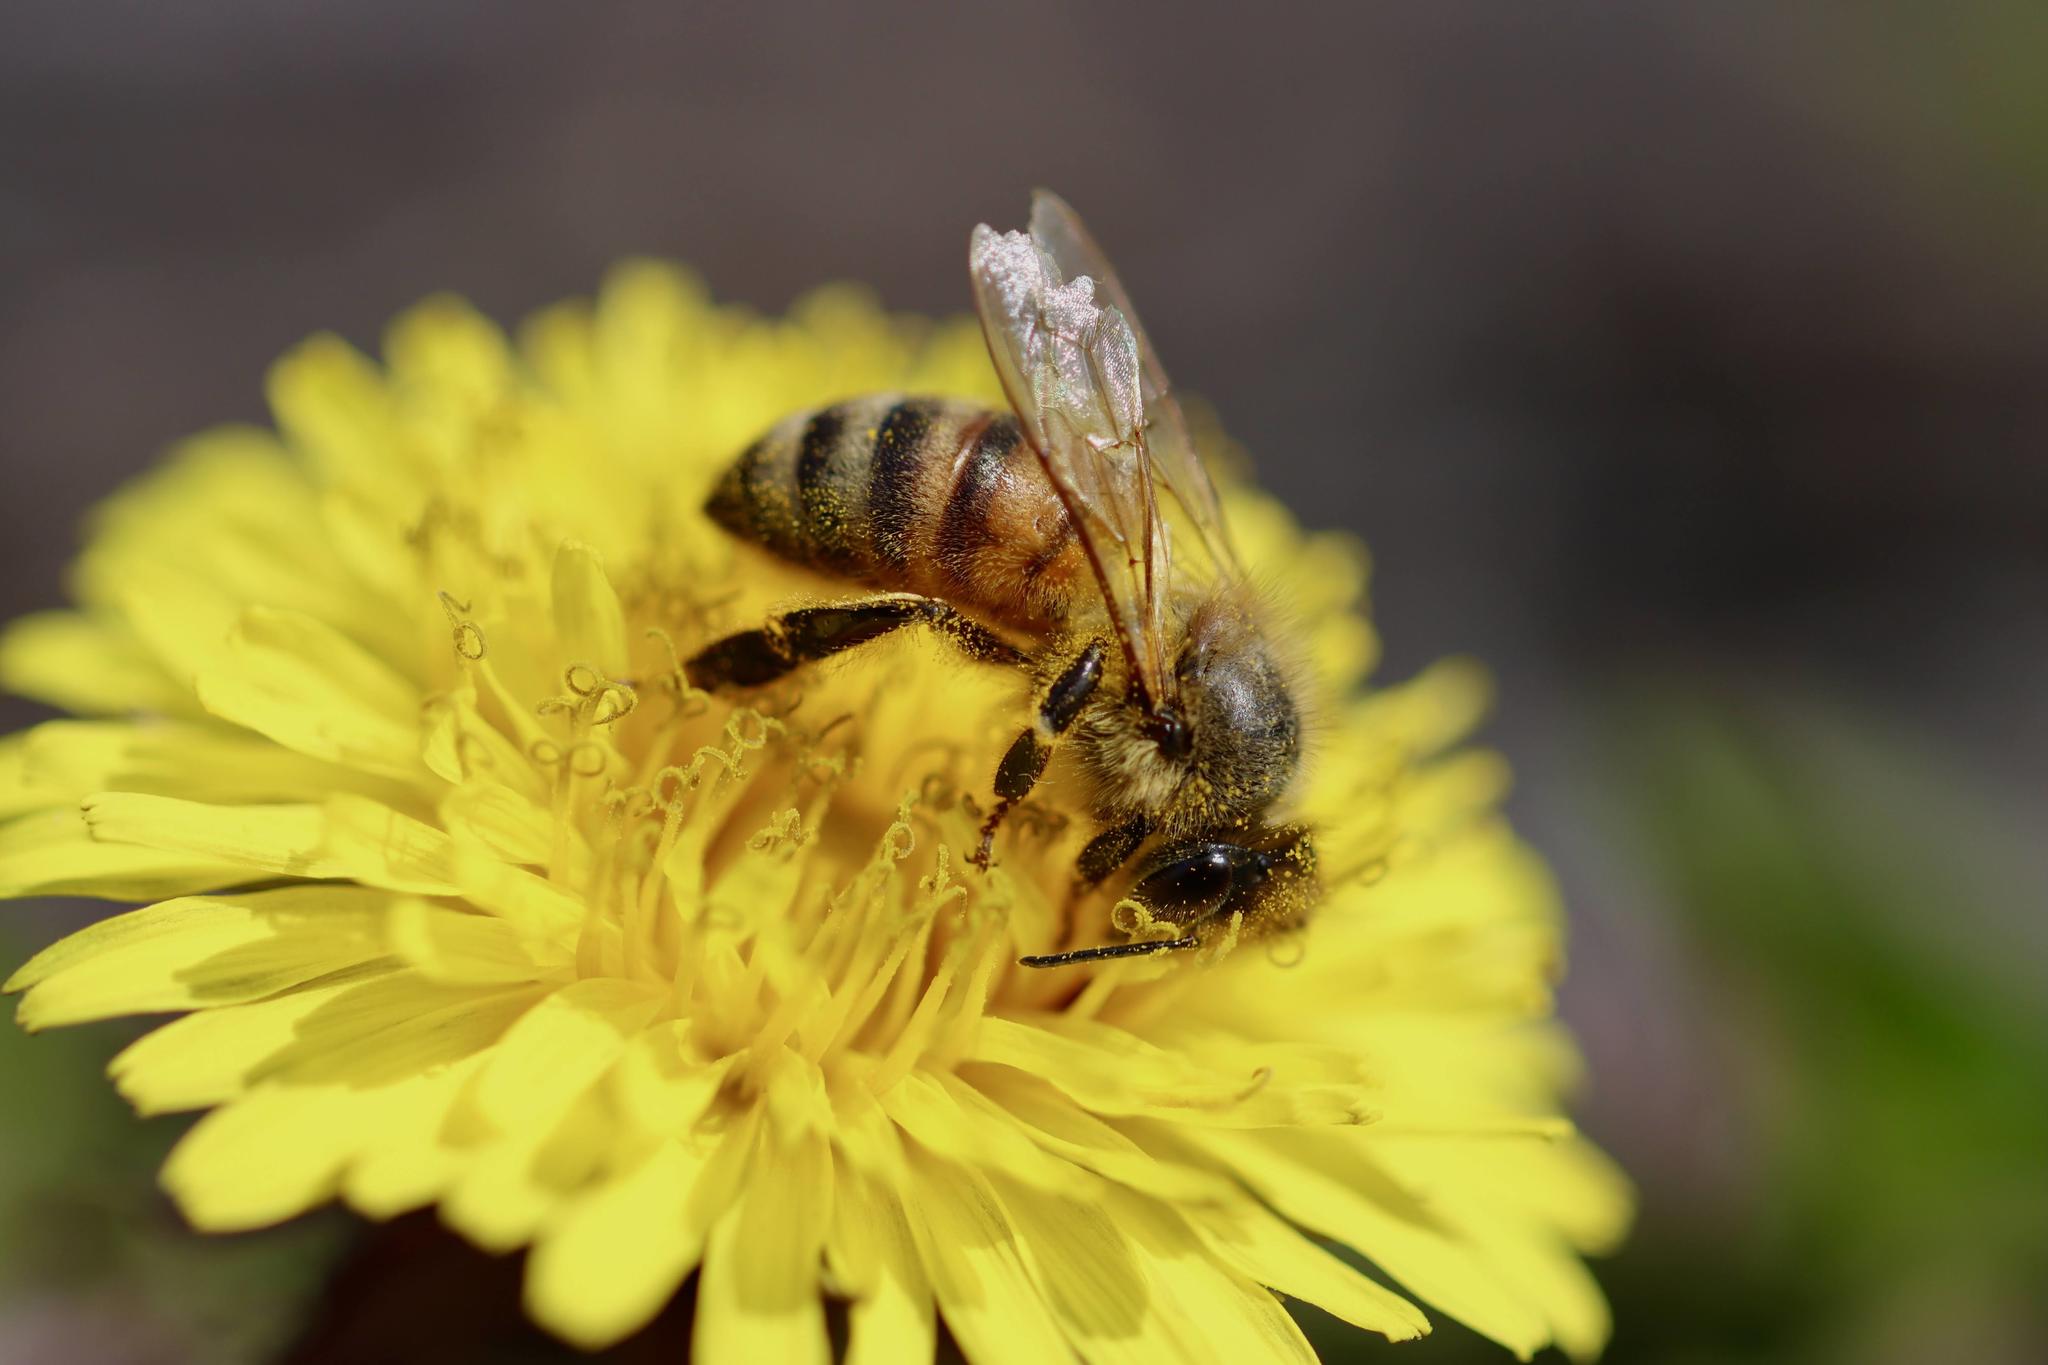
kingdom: Animalia
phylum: Arthropoda
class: Insecta
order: Hymenoptera
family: Apidae
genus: Apis
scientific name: Apis mellifera
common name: Honey bee
